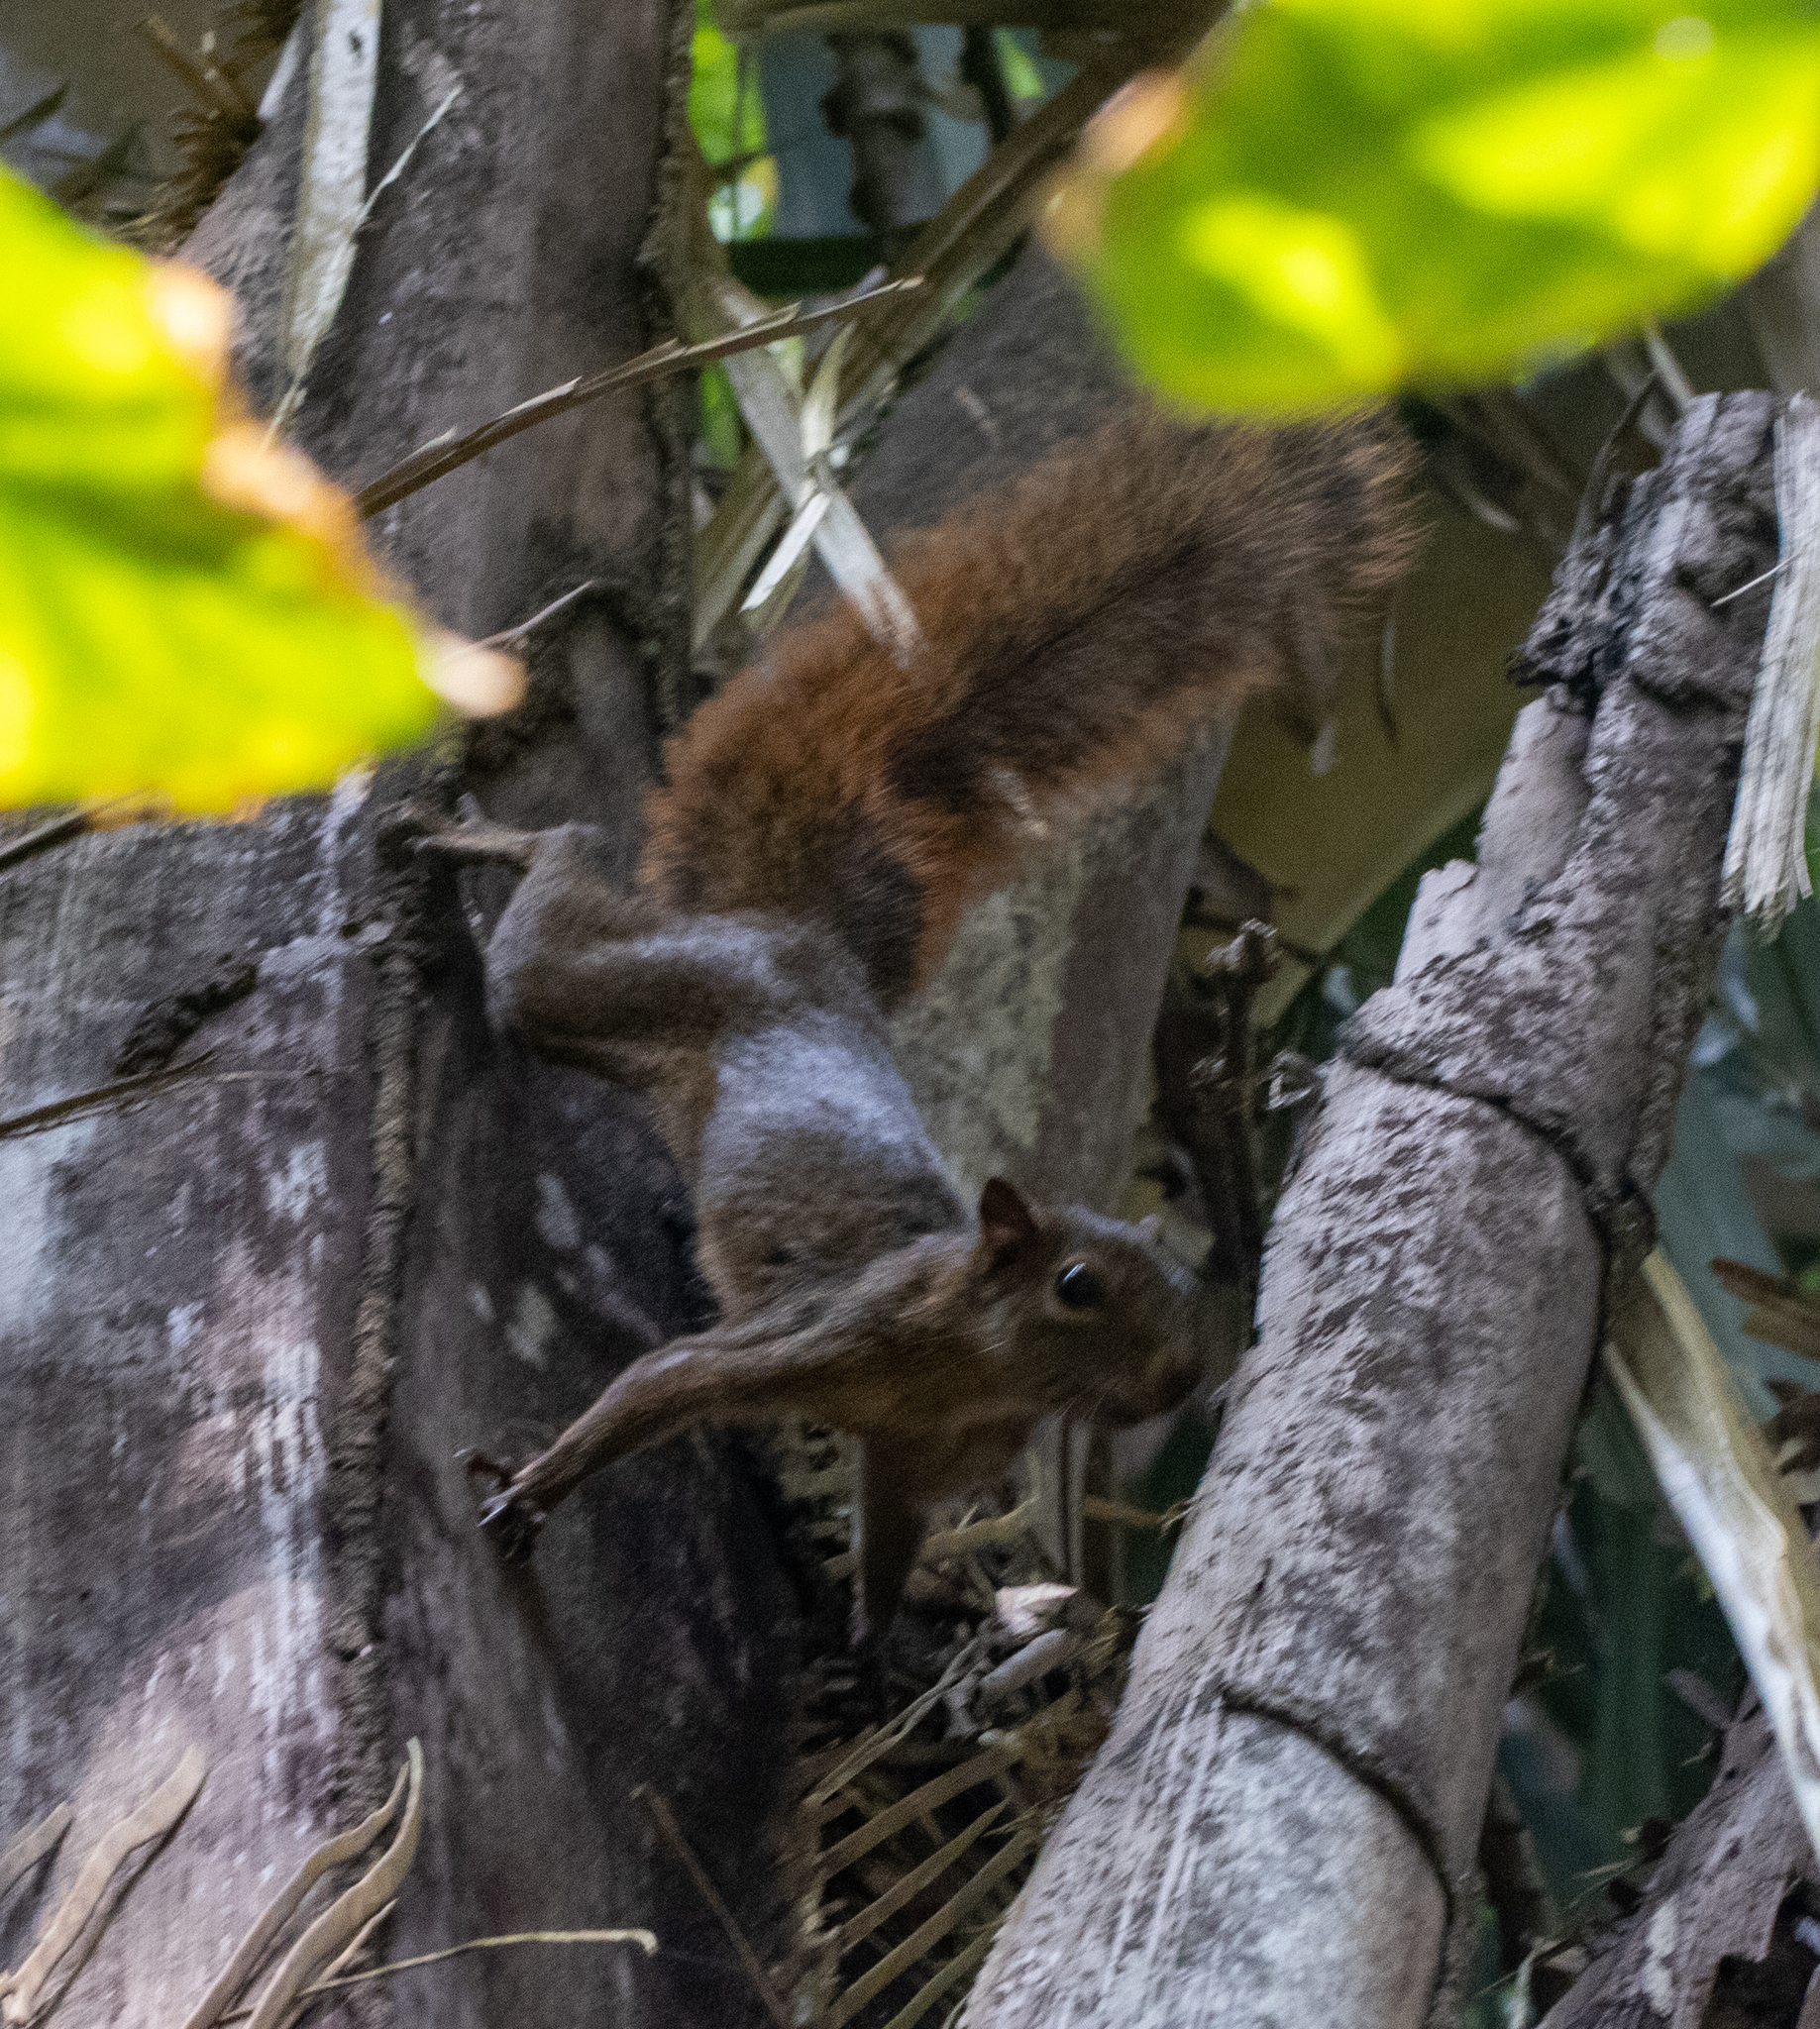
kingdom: Animalia
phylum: Chordata
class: Mammalia
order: Rodentia
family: Sciuridae
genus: Sciurus
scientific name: Sciurus granatensis
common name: Red-tailed squirrel
